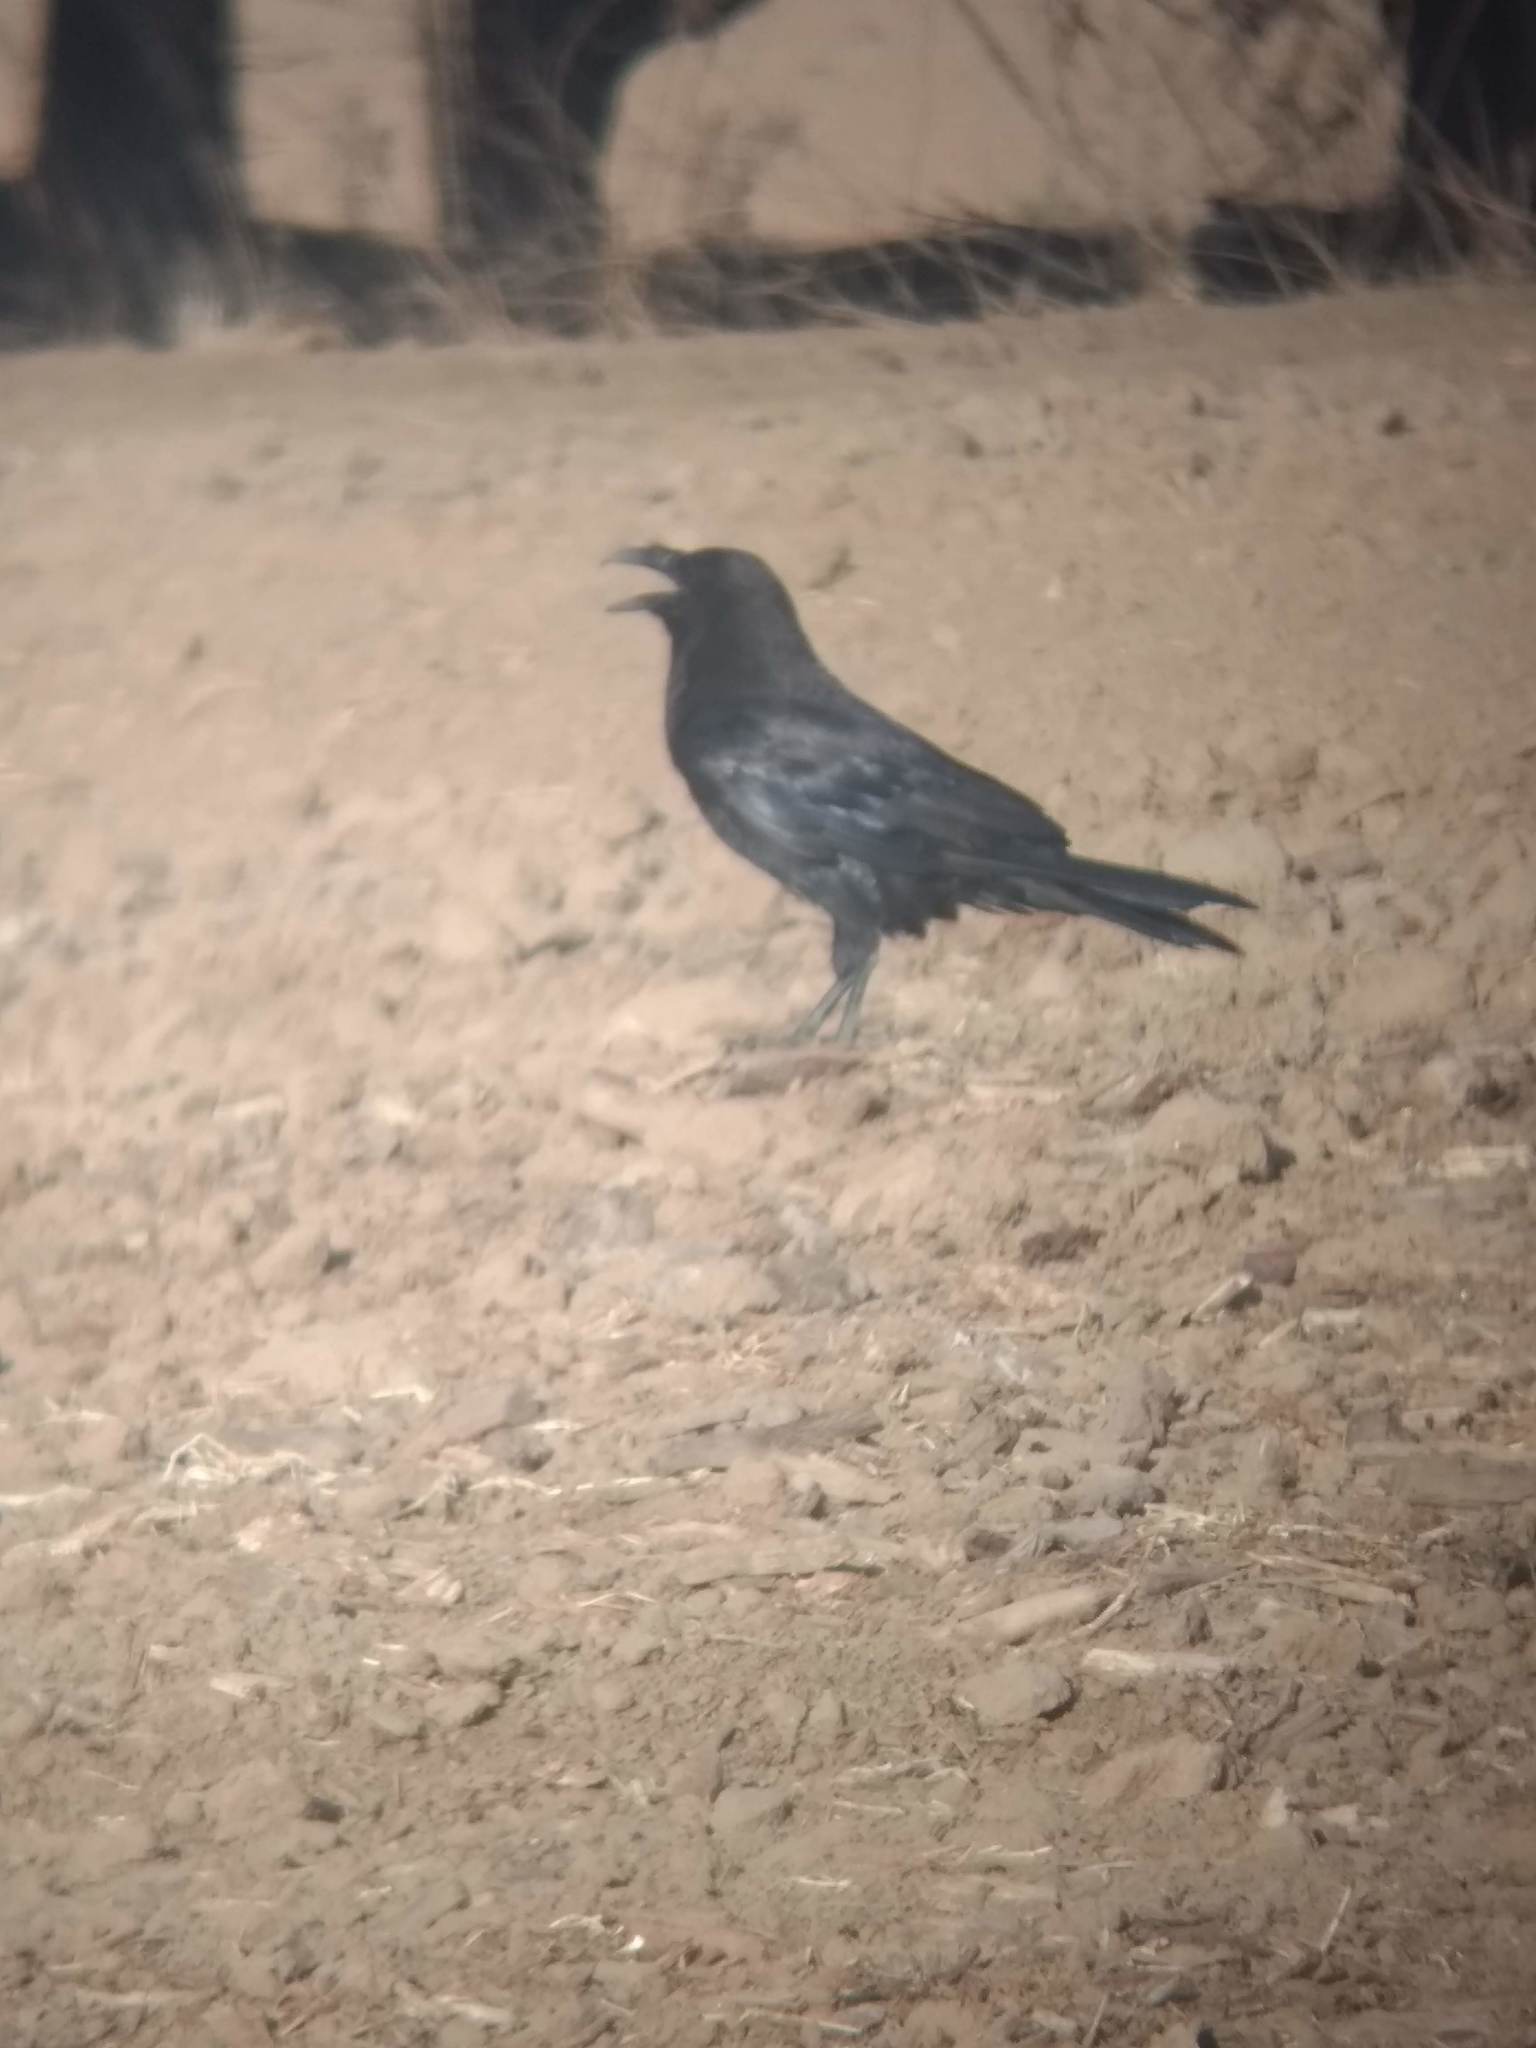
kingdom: Animalia
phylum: Chordata
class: Aves
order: Passeriformes
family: Corvidae
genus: Corvus
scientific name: Corvus corax
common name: Common raven
